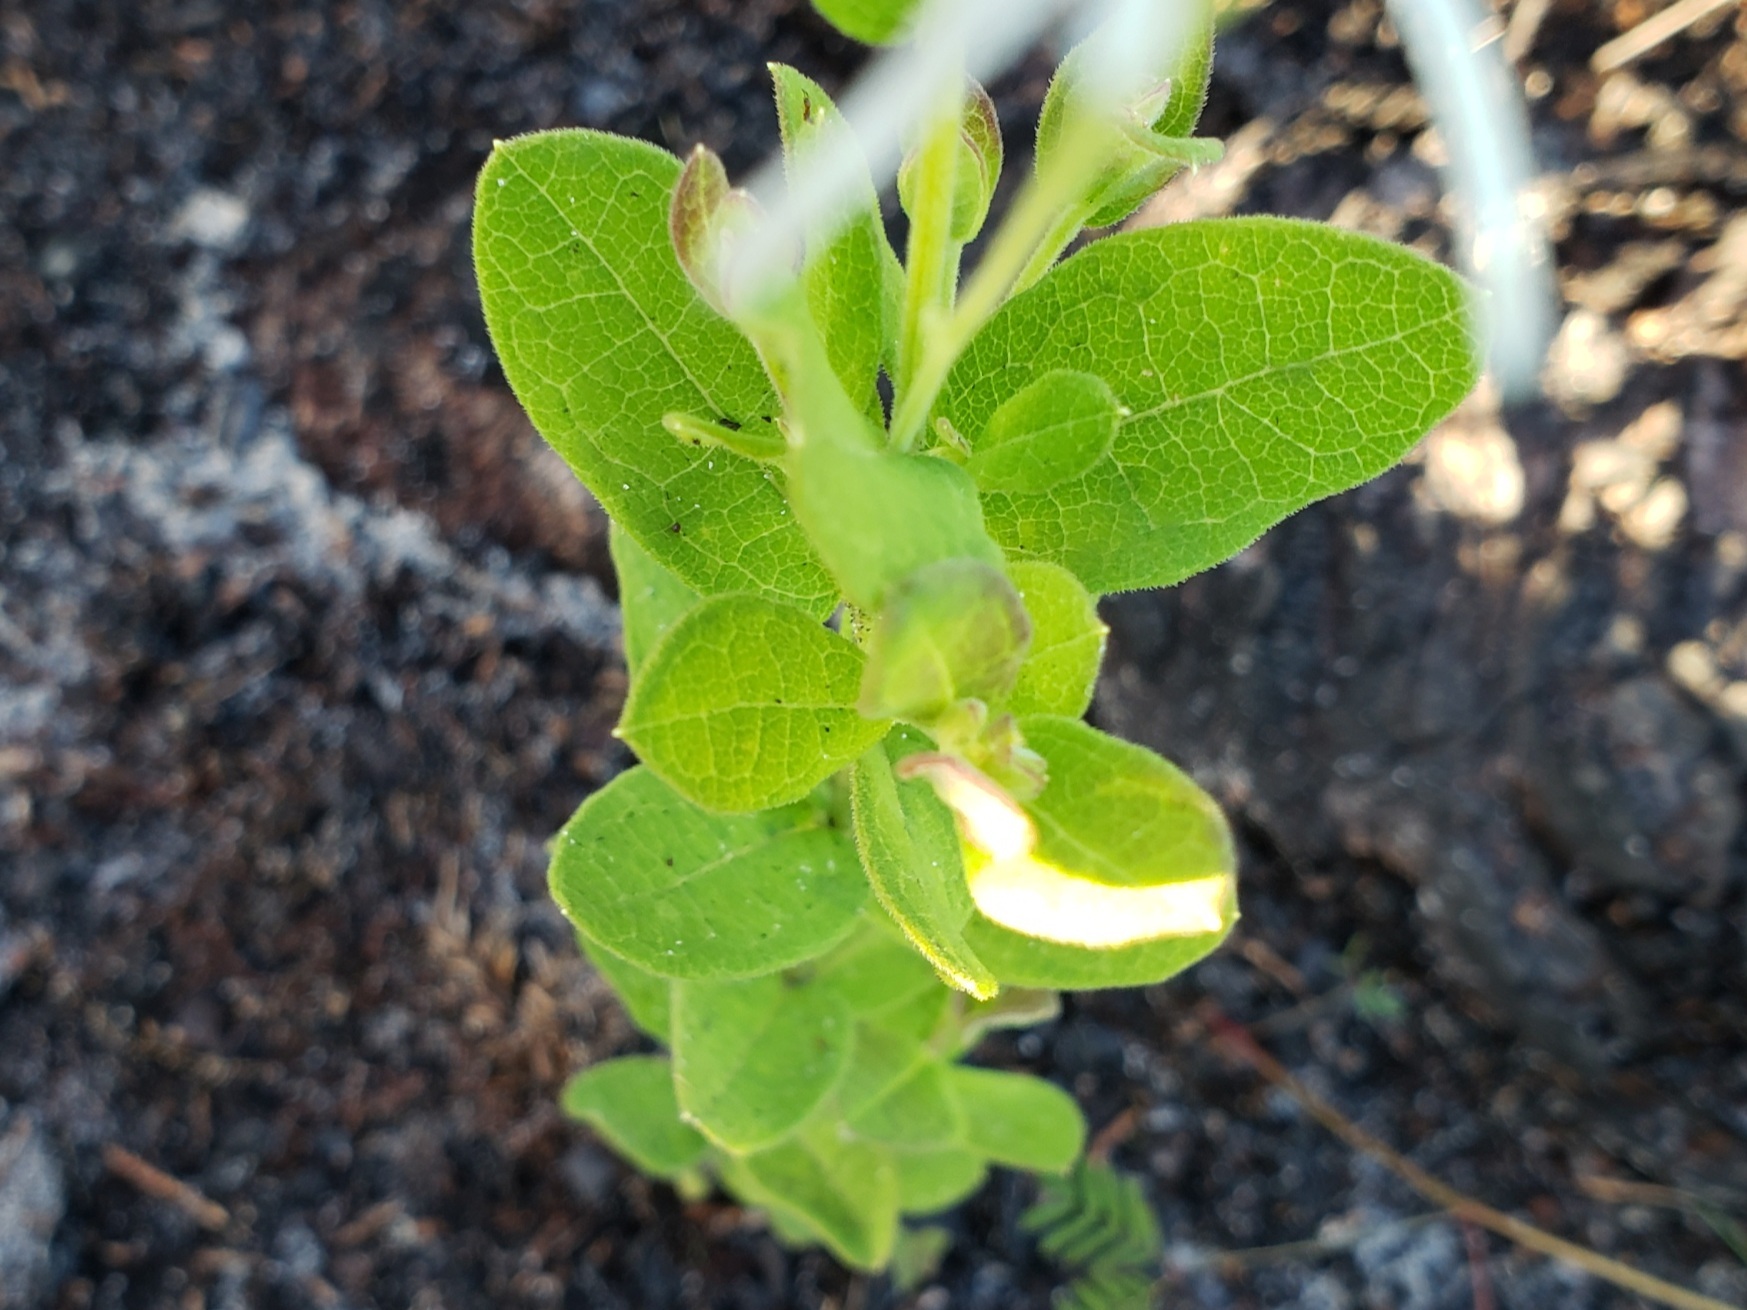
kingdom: Plantae
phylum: Tracheophyta
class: Magnoliopsida
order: Asterales
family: Asteraceae
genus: Oclemena
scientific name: Oclemena reticulata
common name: Pinebarren aster
